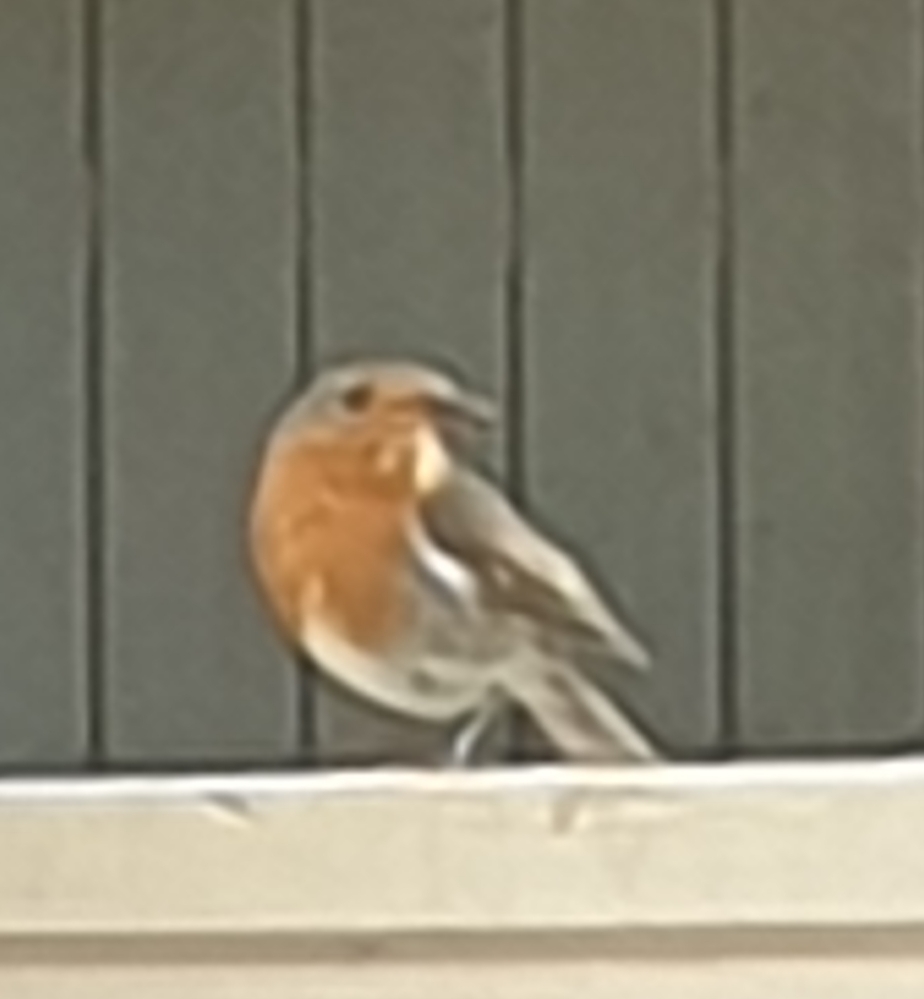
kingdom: Animalia
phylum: Chordata
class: Aves
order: Passeriformes
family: Muscicapidae
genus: Erithacus
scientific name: Erithacus rubecula
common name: European robin
